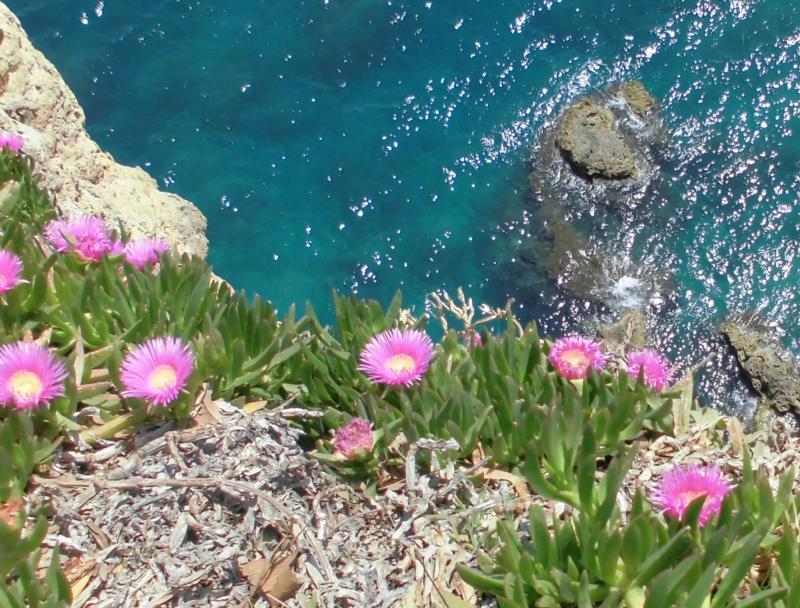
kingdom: Plantae
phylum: Tracheophyta
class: Magnoliopsida
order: Caryophyllales
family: Aizoaceae
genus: Carpobrotus
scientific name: Carpobrotus edulis
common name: Hottentot-fig
